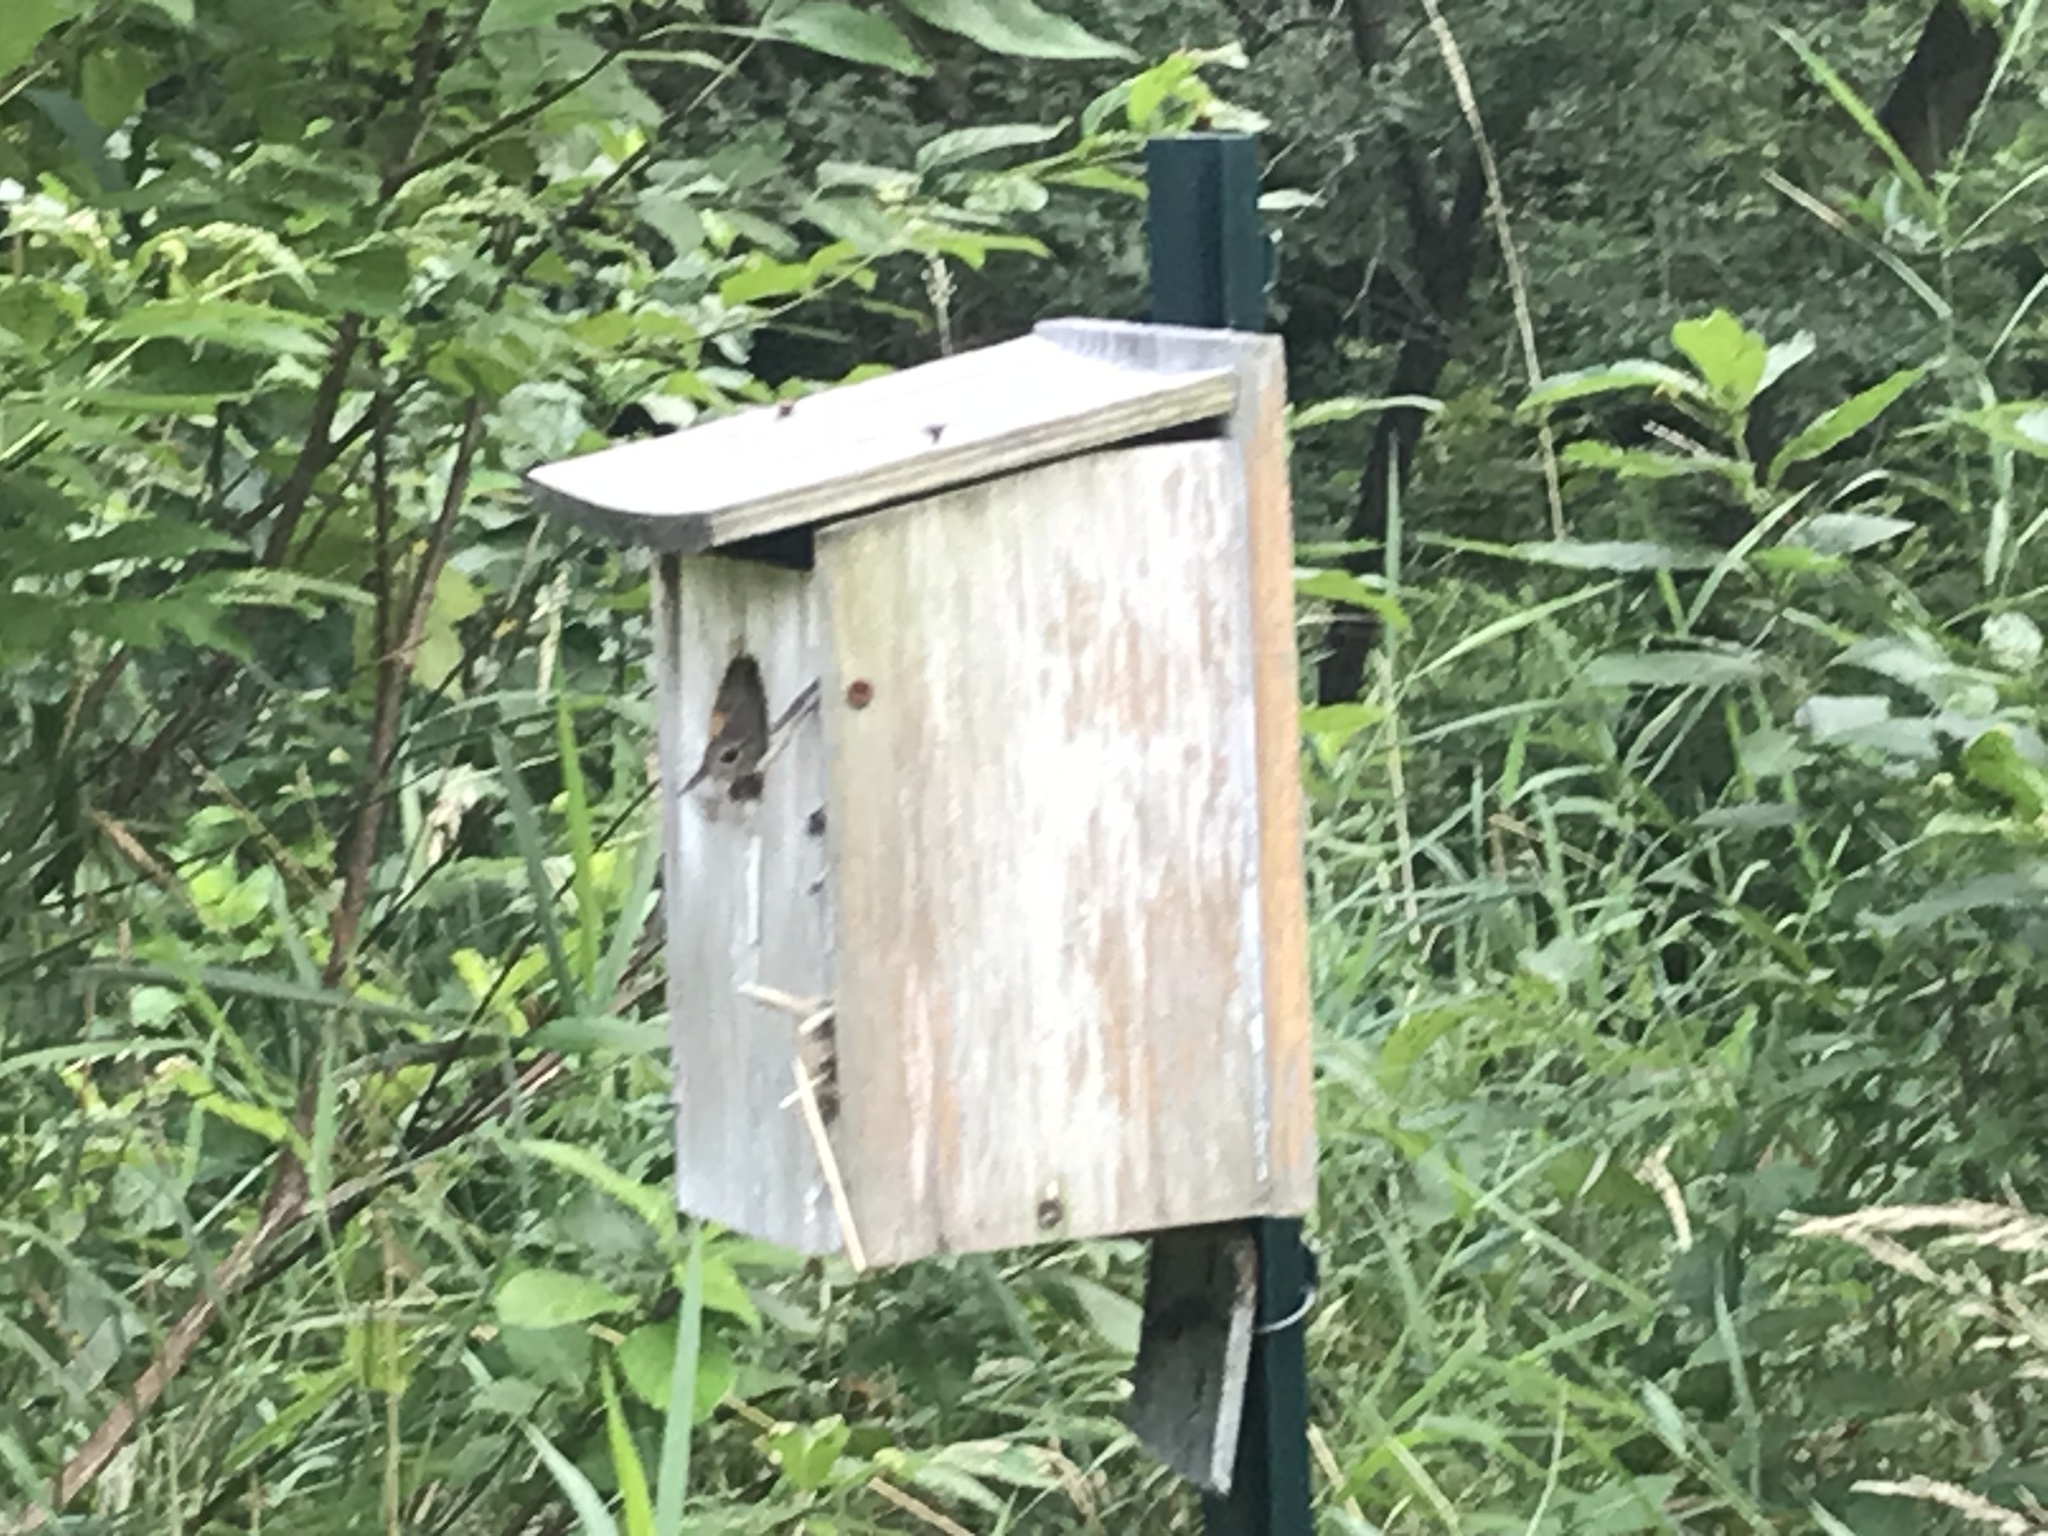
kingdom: Animalia
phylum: Chordata
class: Aves
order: Passeriformes
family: Troglodytidae
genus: Troglodytes
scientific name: Troglodytes aedon
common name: House wren
